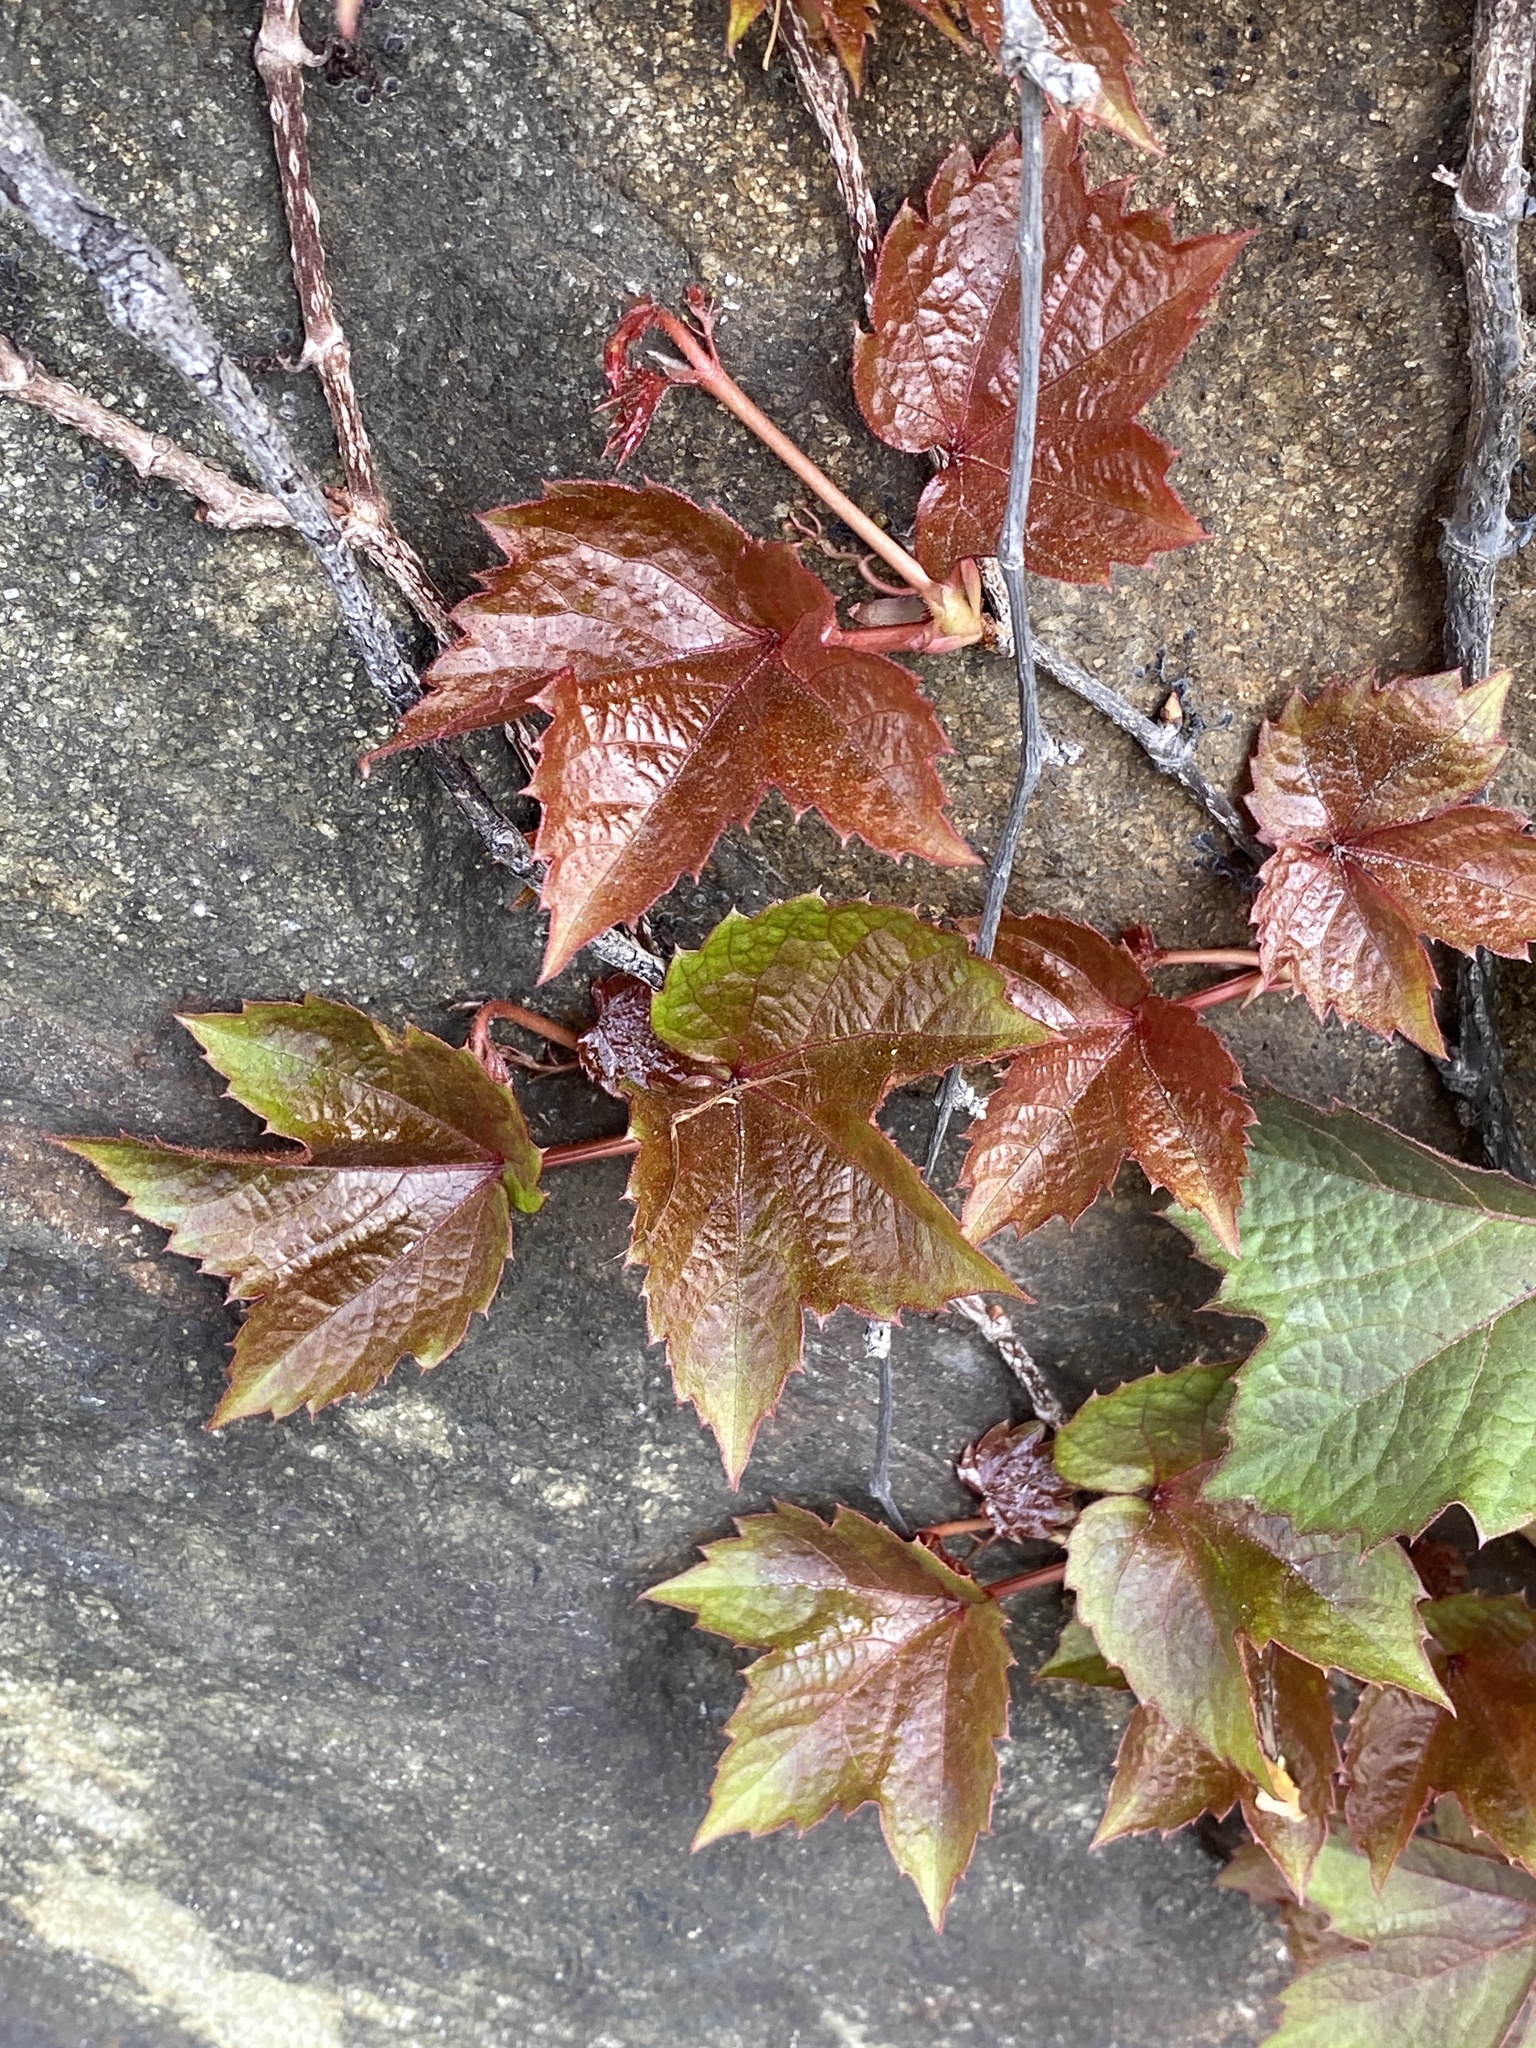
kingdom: Plantae
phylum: Tracheophyta
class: Magnoliopsida
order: Vitales
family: Vitaceae
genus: Parthenocissus
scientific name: Parthenocissus tricuspidata
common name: Boston ivy
